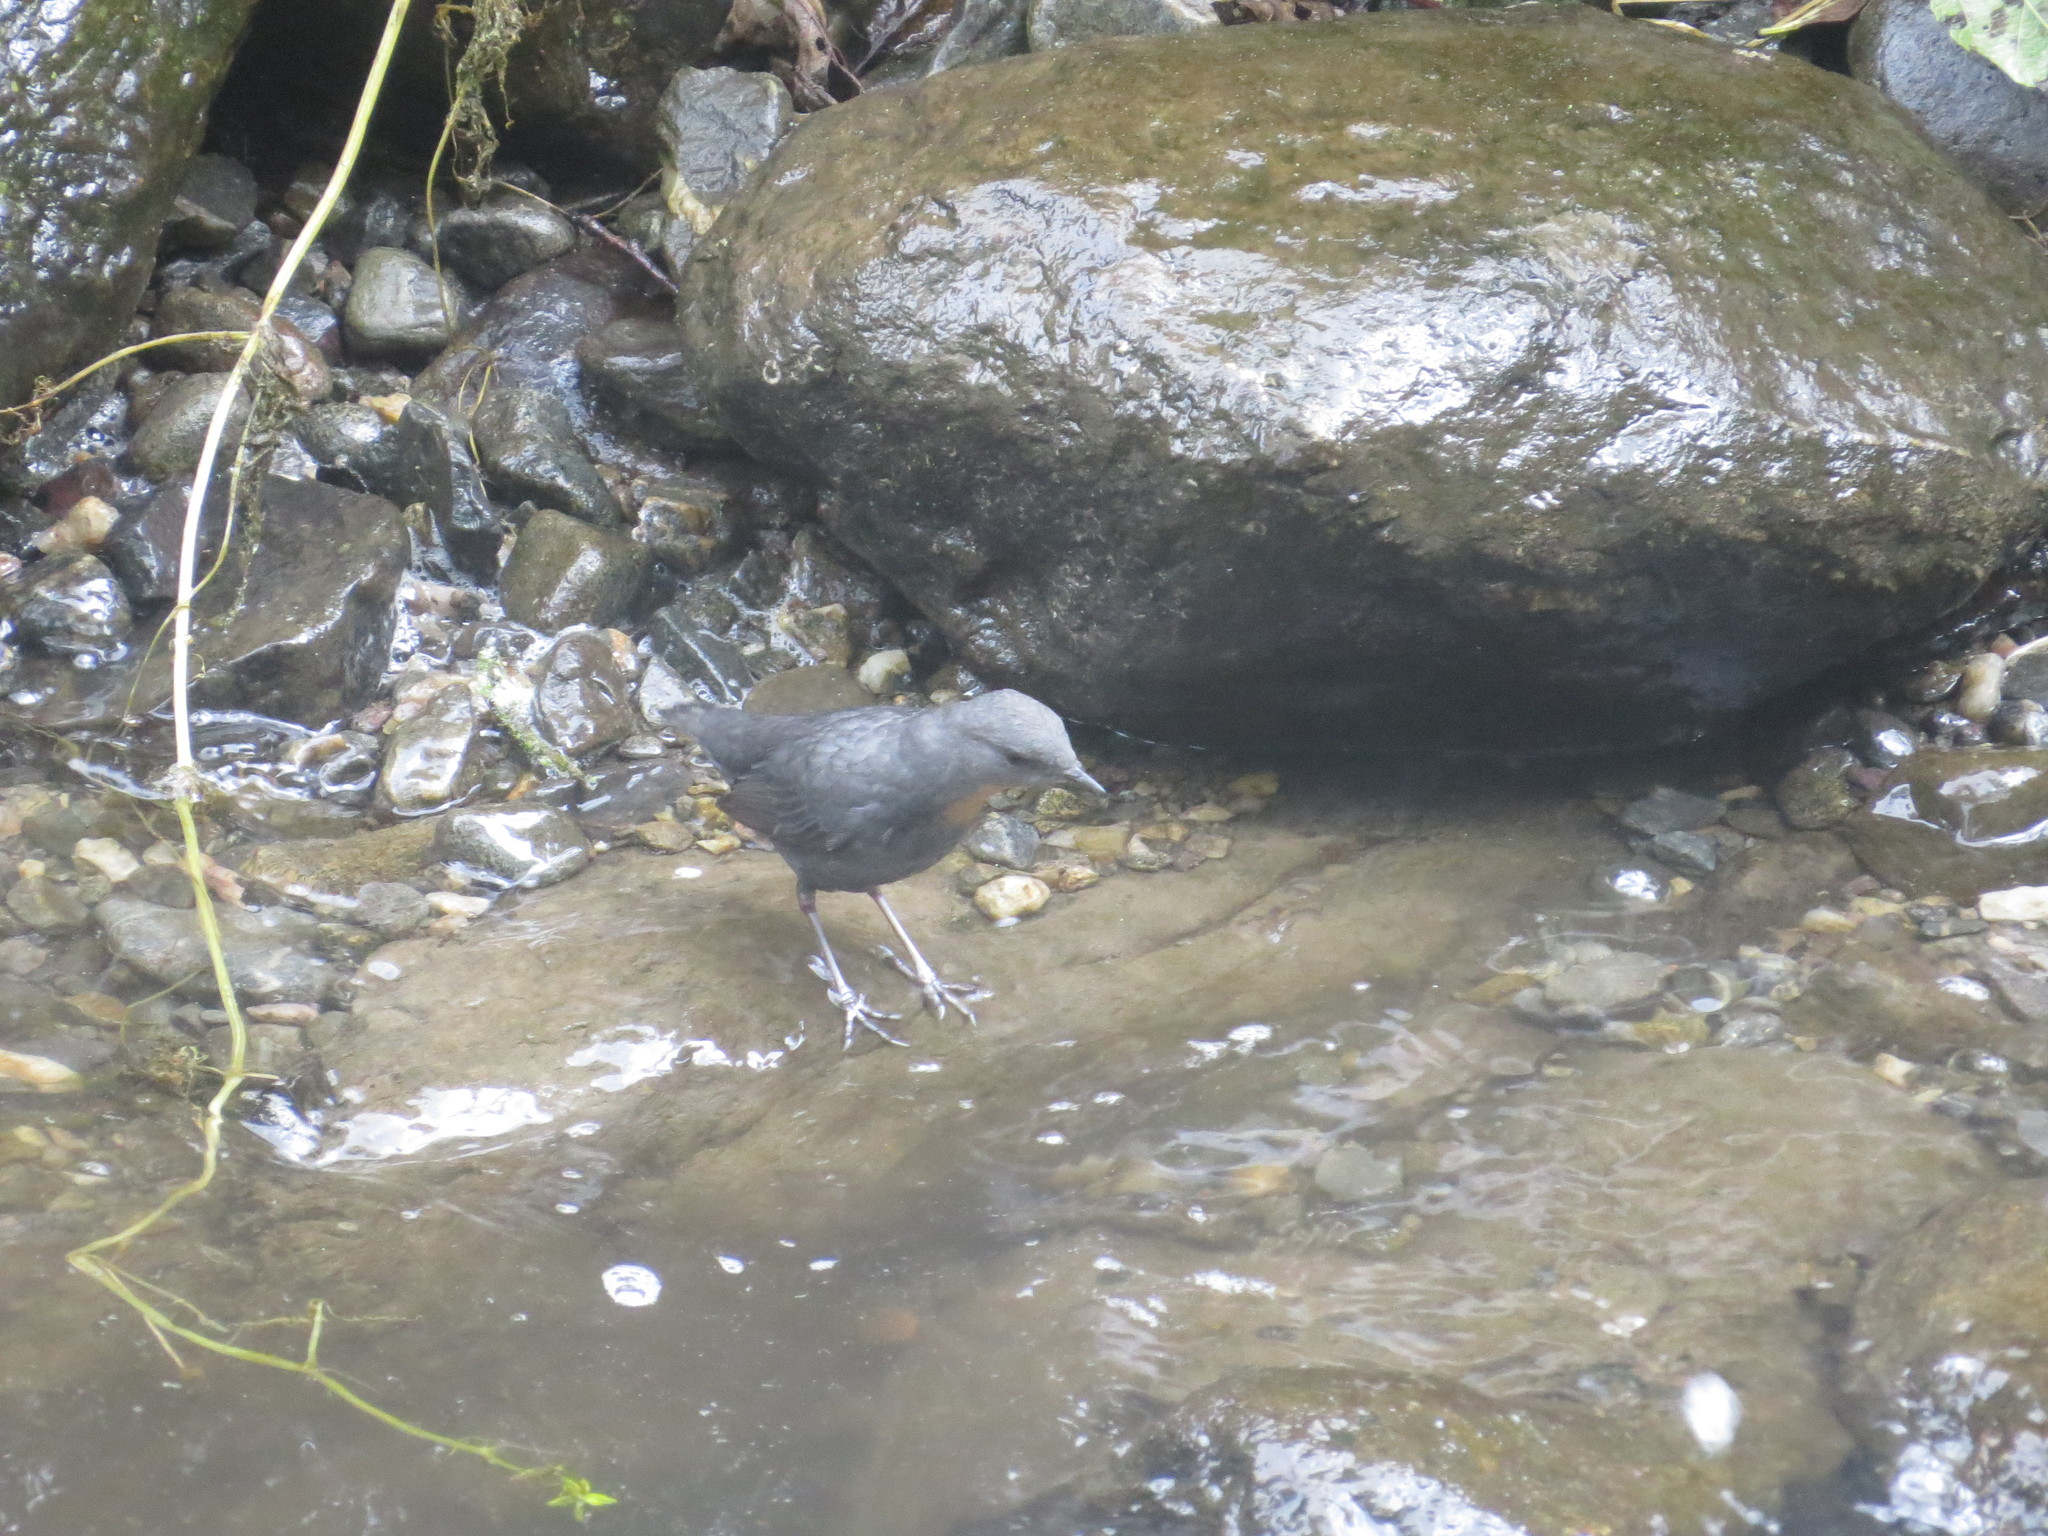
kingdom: Animalia
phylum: Chordata
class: Aves
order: Passeriformes
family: Cinclidae
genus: Cinclus
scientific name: Cinclus schulzii
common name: Rufous-throated dipper
